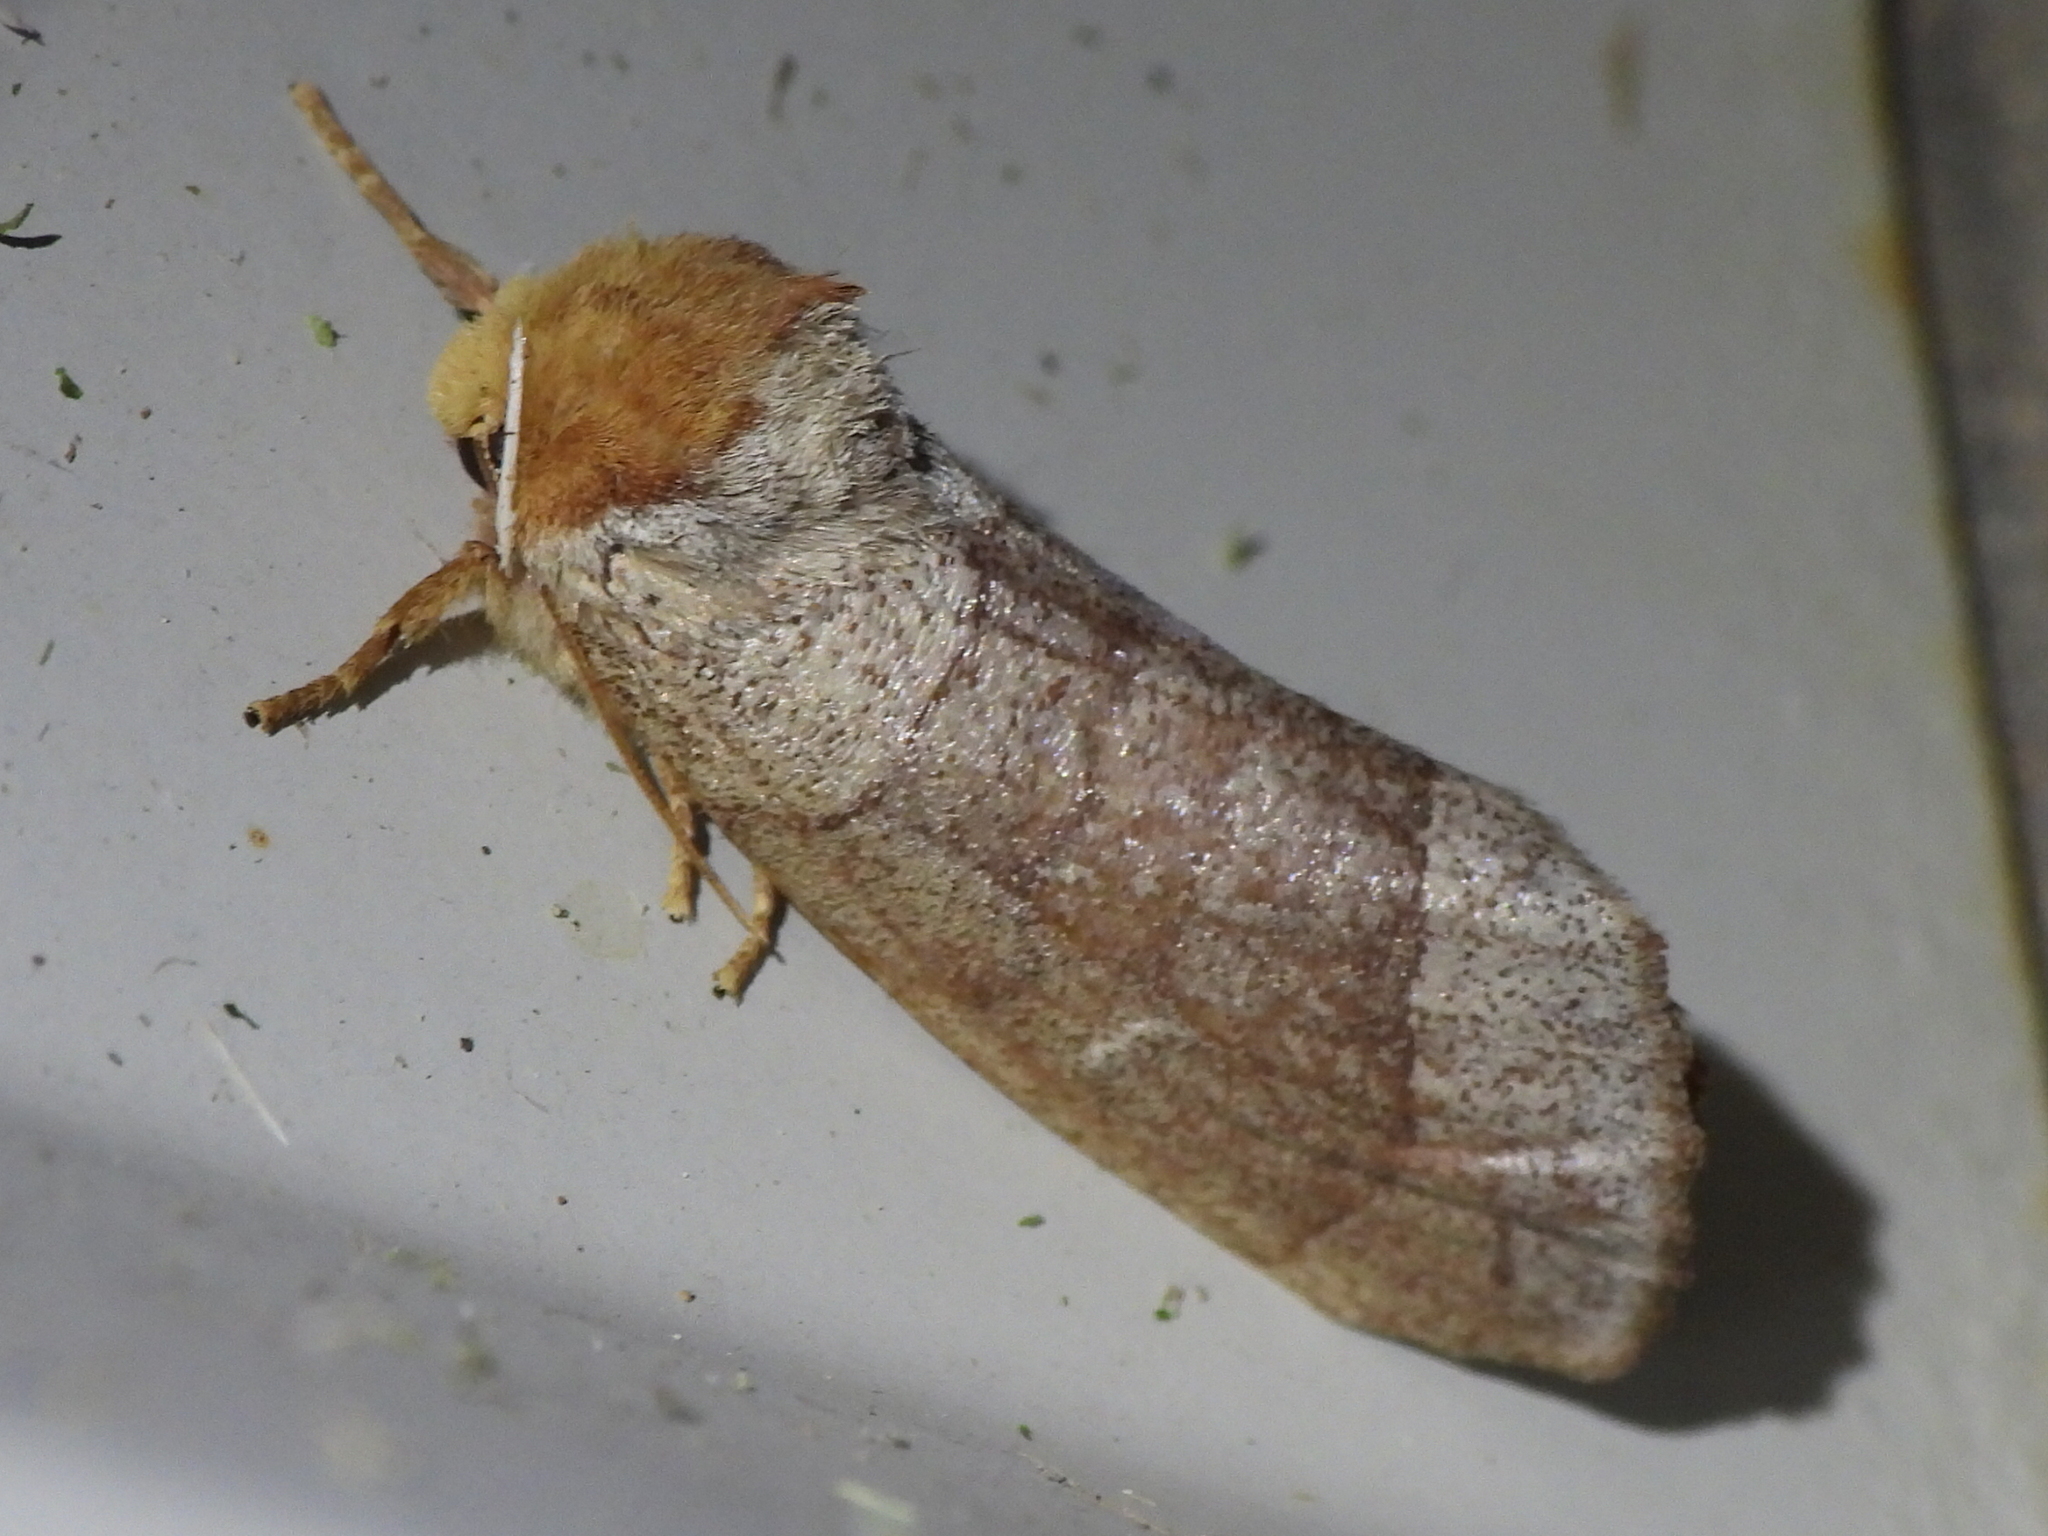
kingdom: Animalia
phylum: Arthropoda
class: Insecta
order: Lepidoptera
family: Notodontidae
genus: Datana
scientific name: Datana diffidens
